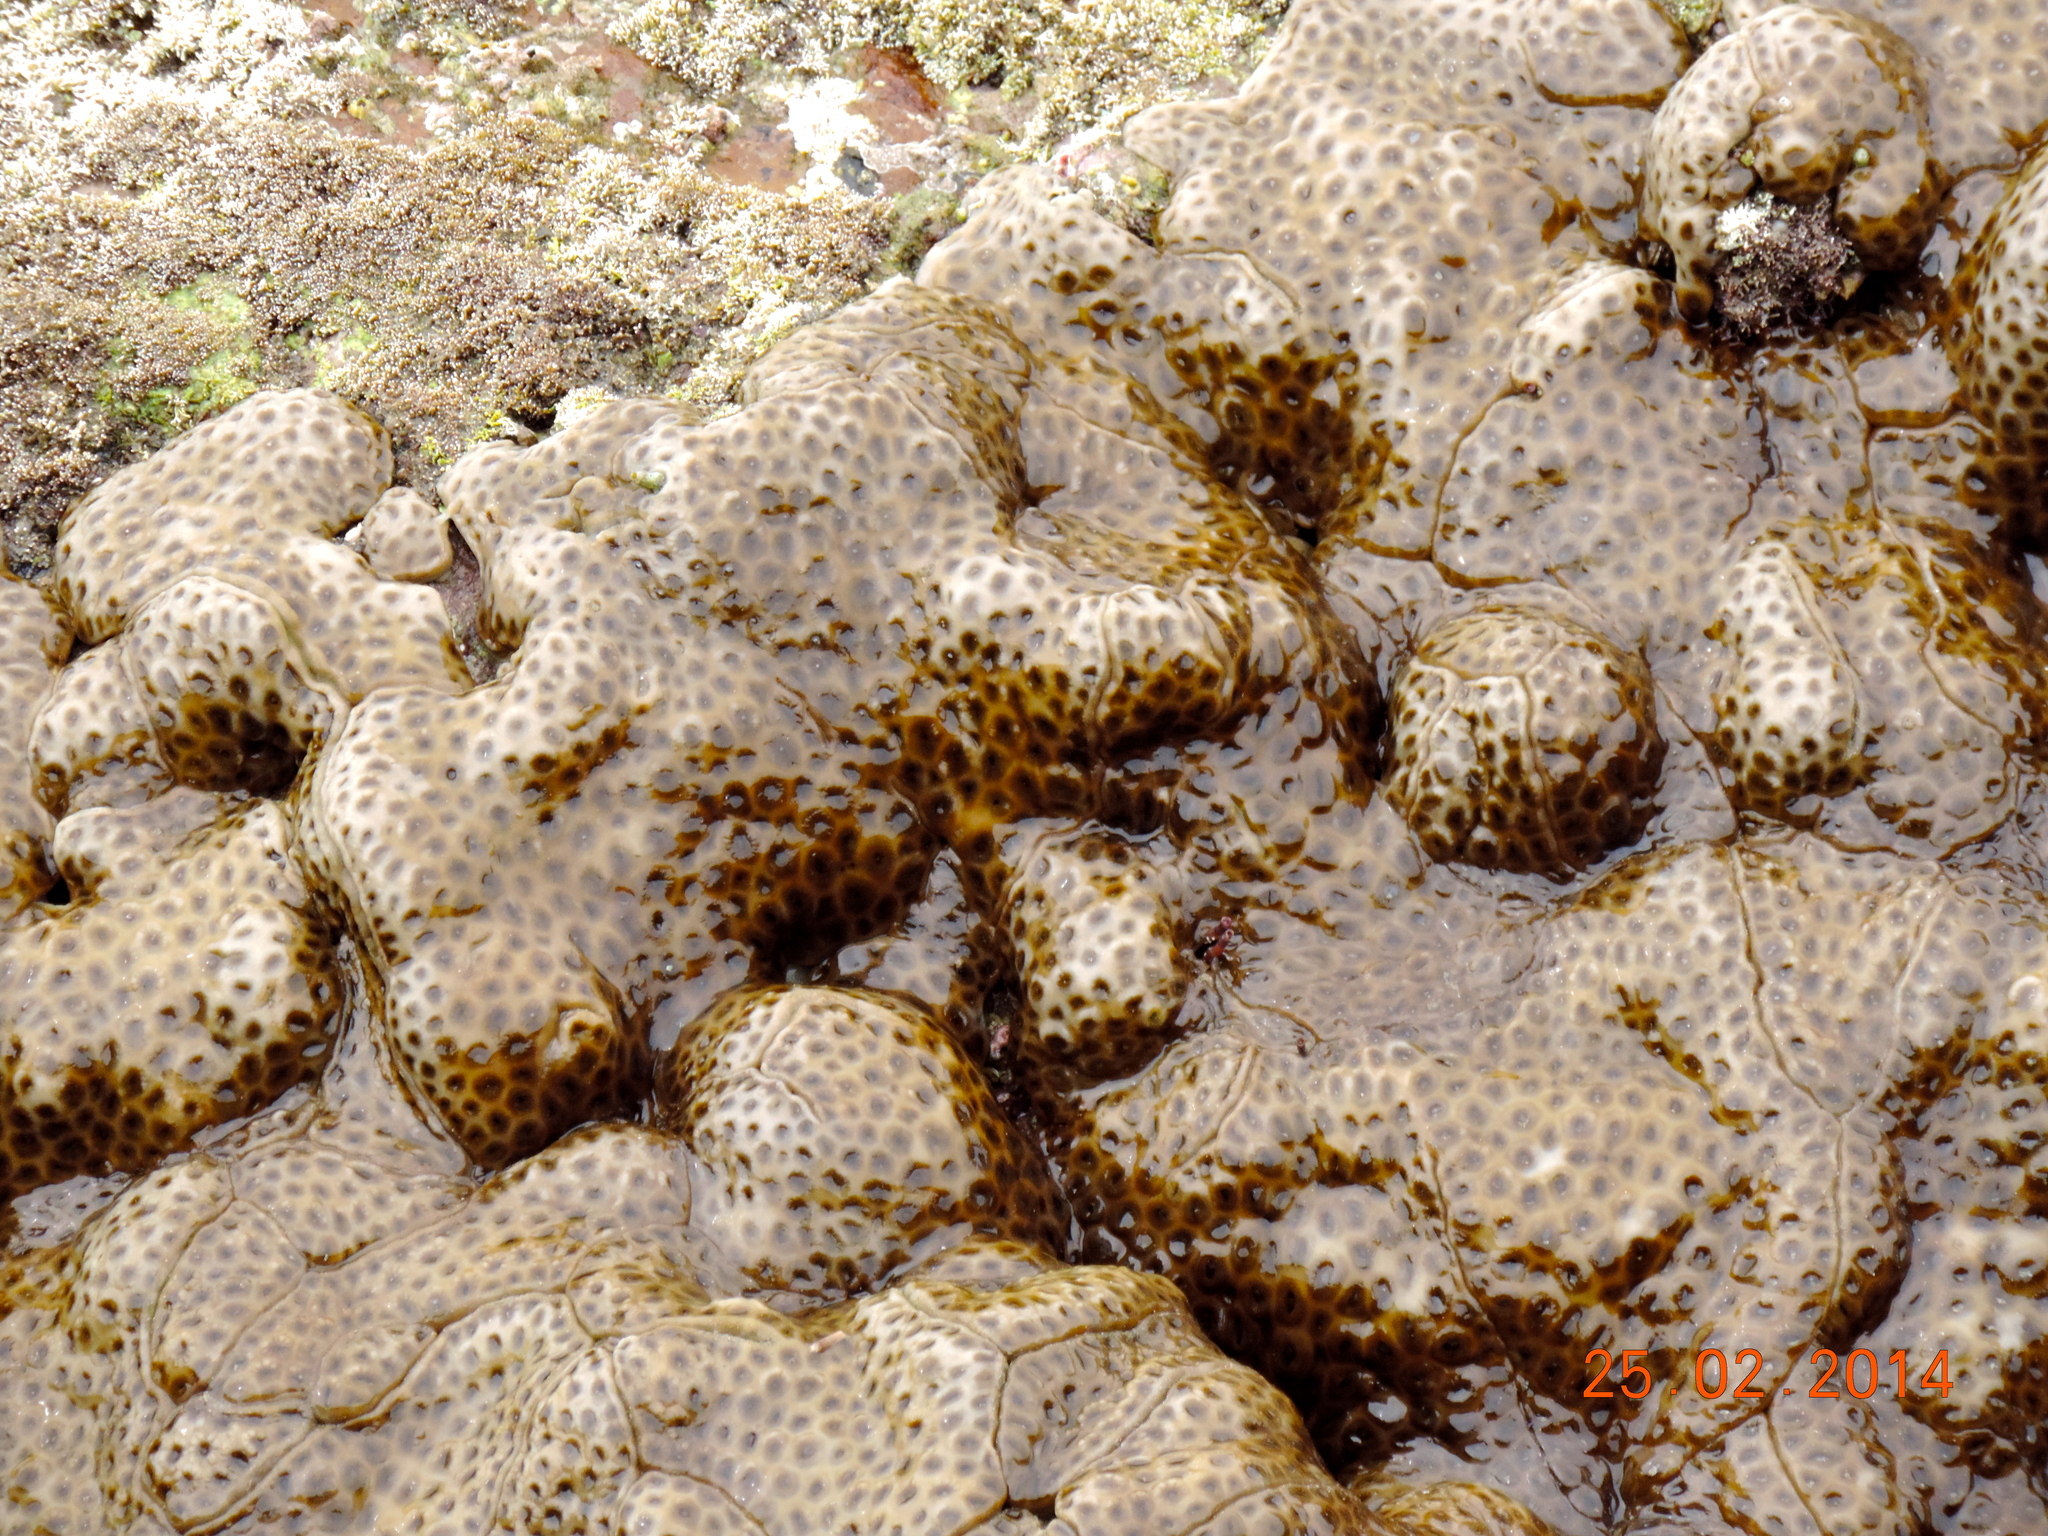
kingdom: Animalia
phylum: Cnidaria
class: Anthozoa
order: Zoantharia
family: Sphenopidae
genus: Palythoa
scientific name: Palythoa tuberculosa
